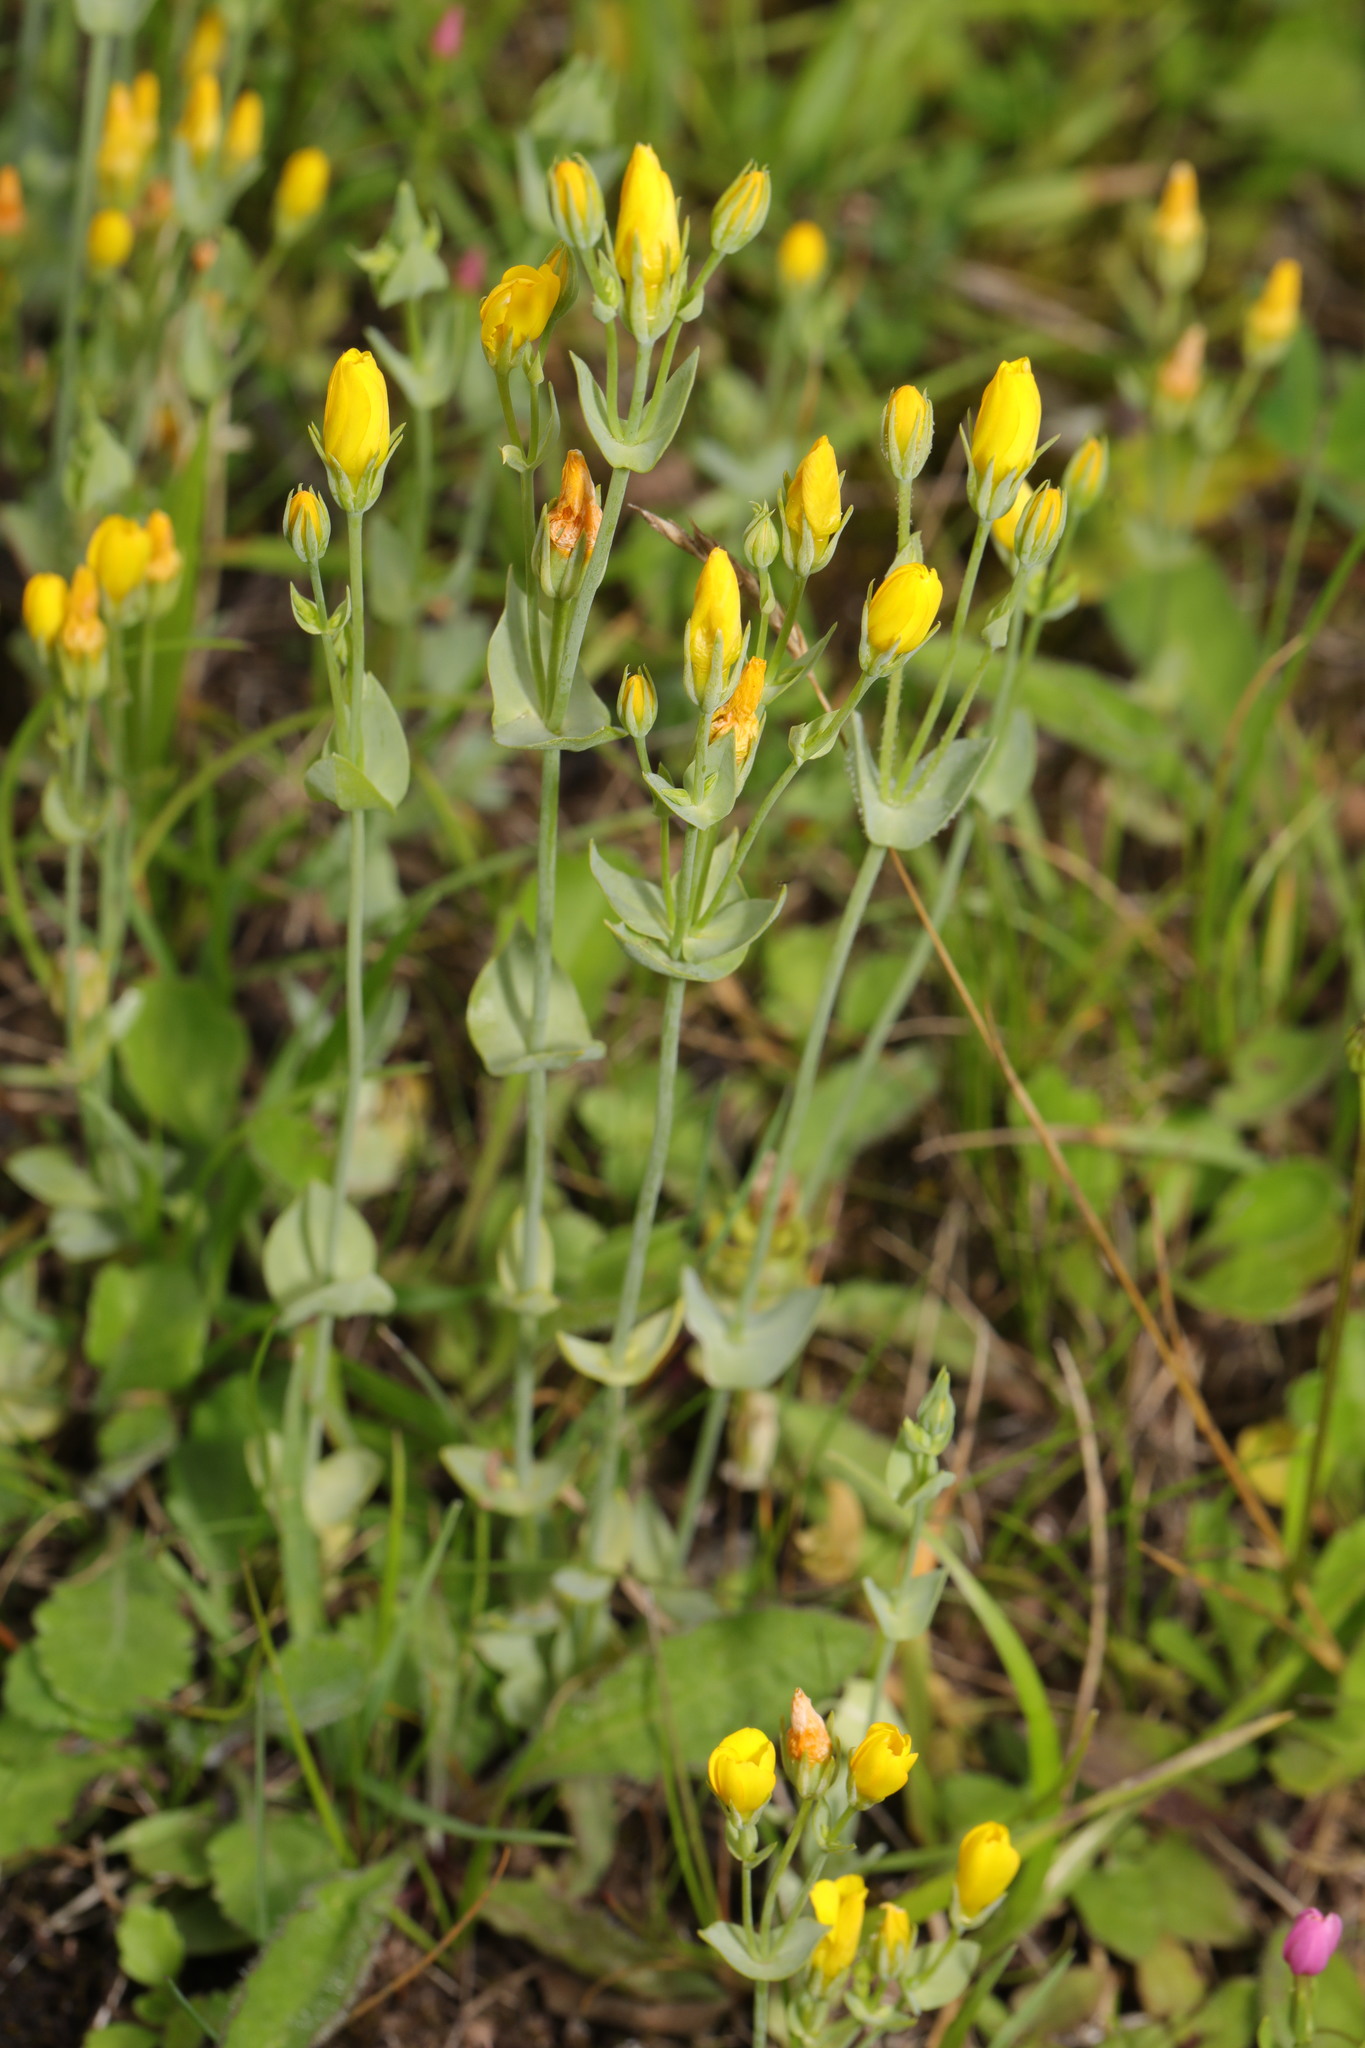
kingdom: Plantae
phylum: Tracheophyta
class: Magnoliopsida
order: Gentianales
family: Gentianaceae
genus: Blackstonia
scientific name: Blackstonia perfoliata
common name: Yellow-wort
